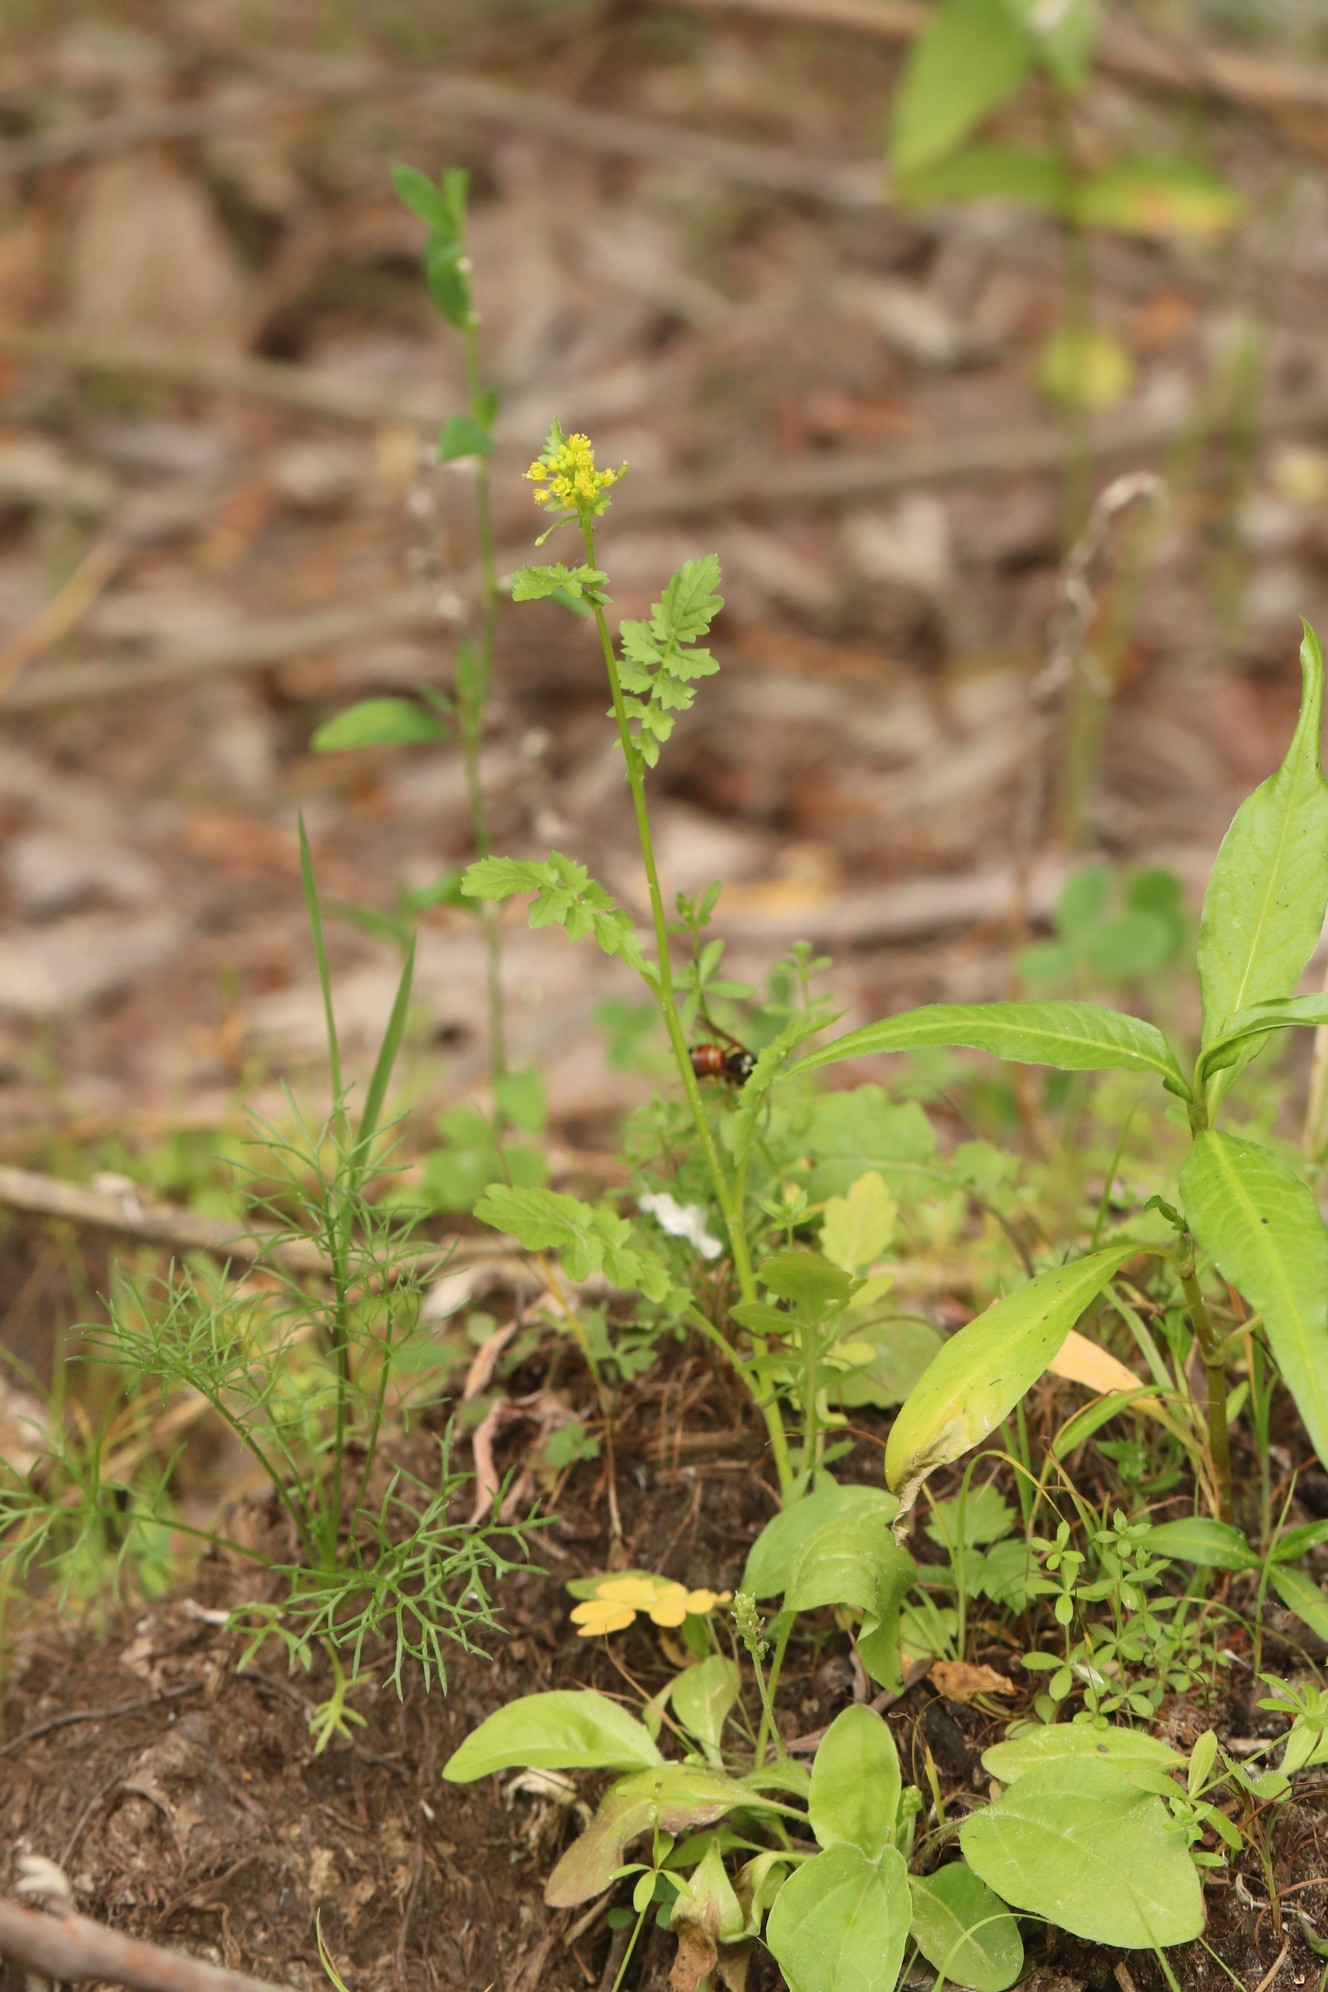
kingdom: Plantae
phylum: Tracheophyta
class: Magnoliopsida
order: Brassicales
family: Brassicaceae
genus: Rorippa
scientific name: Rorippa palustris
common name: Marsh yellow-cress
